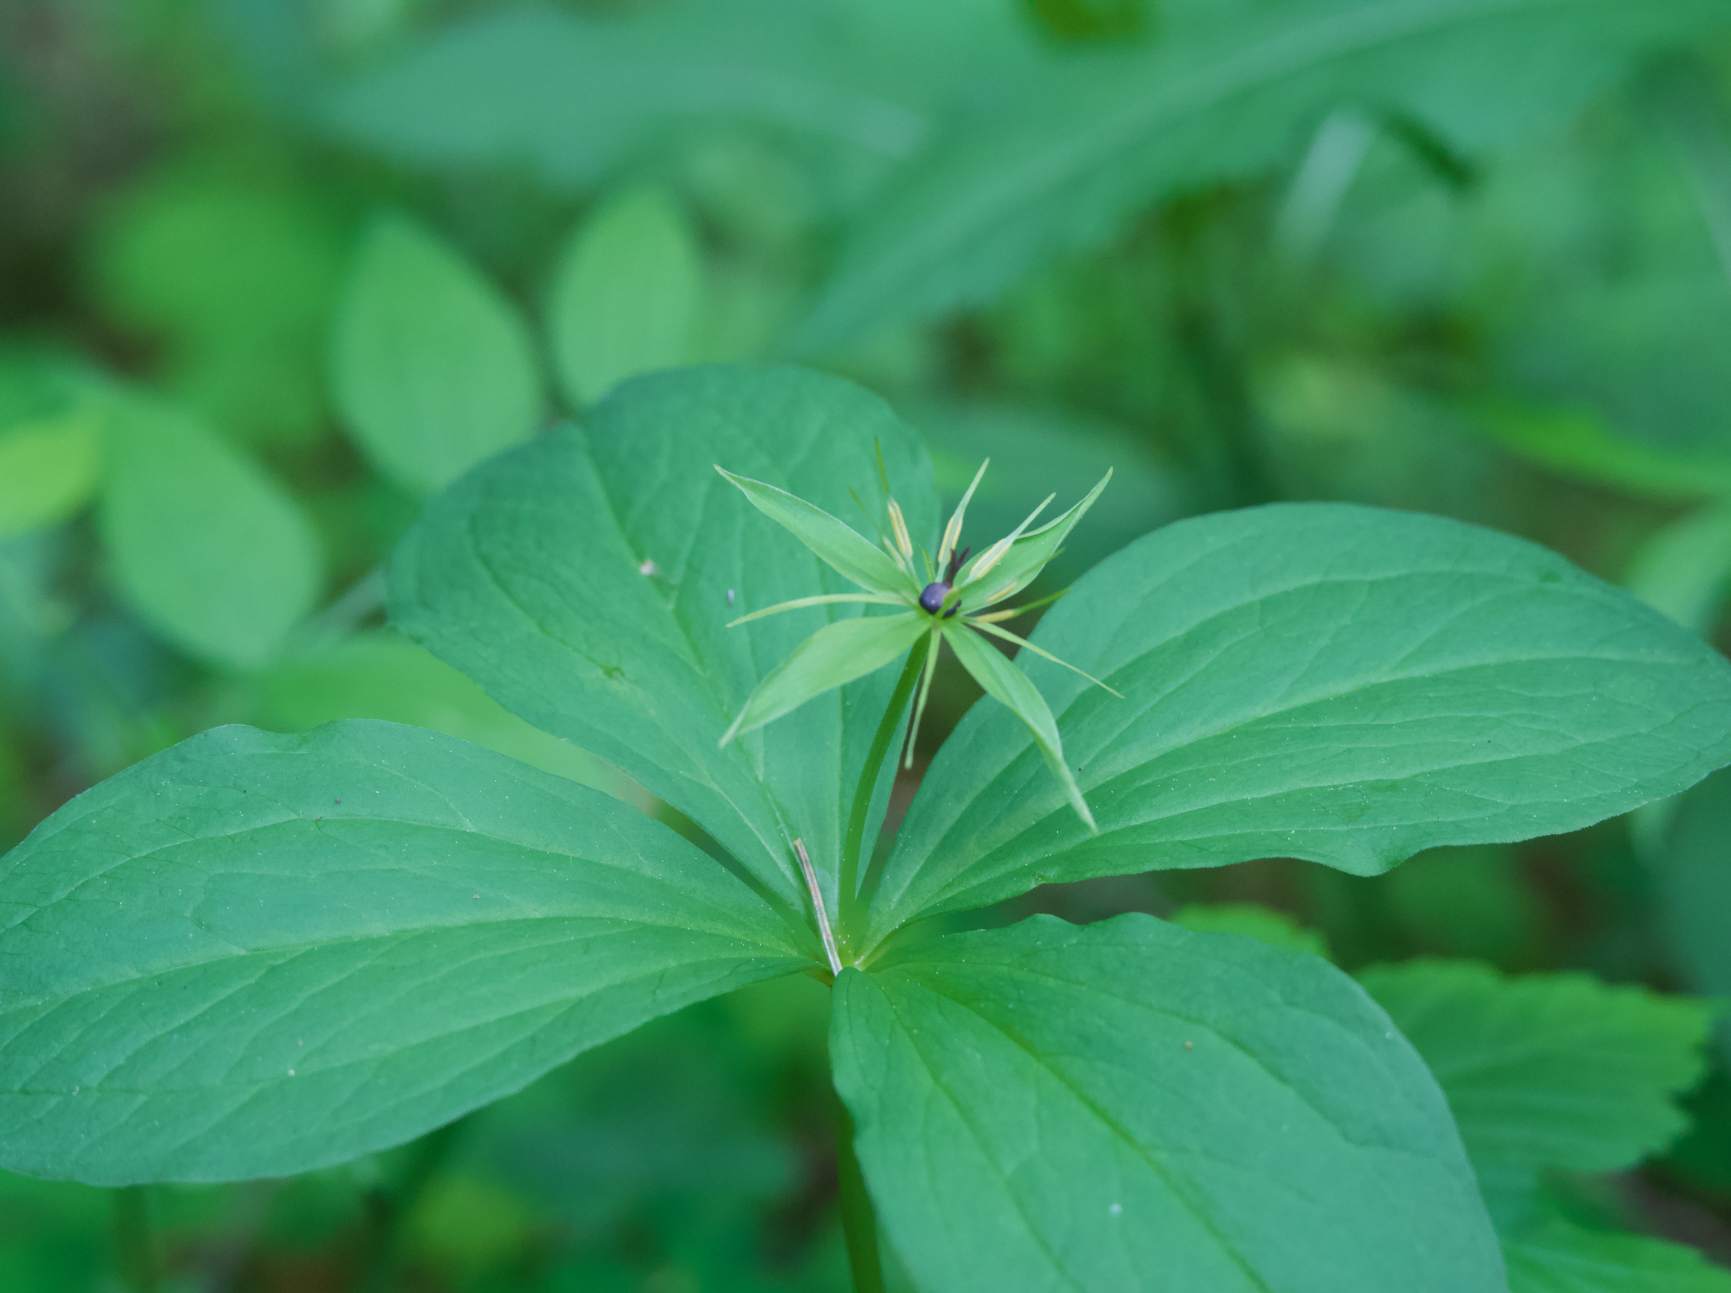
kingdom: Plantae
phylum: Tracheophyta
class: Liliopsida
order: Liliales
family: Melanthiaceae
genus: Paris
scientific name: Paris quadrifolia
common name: Herb-paris
